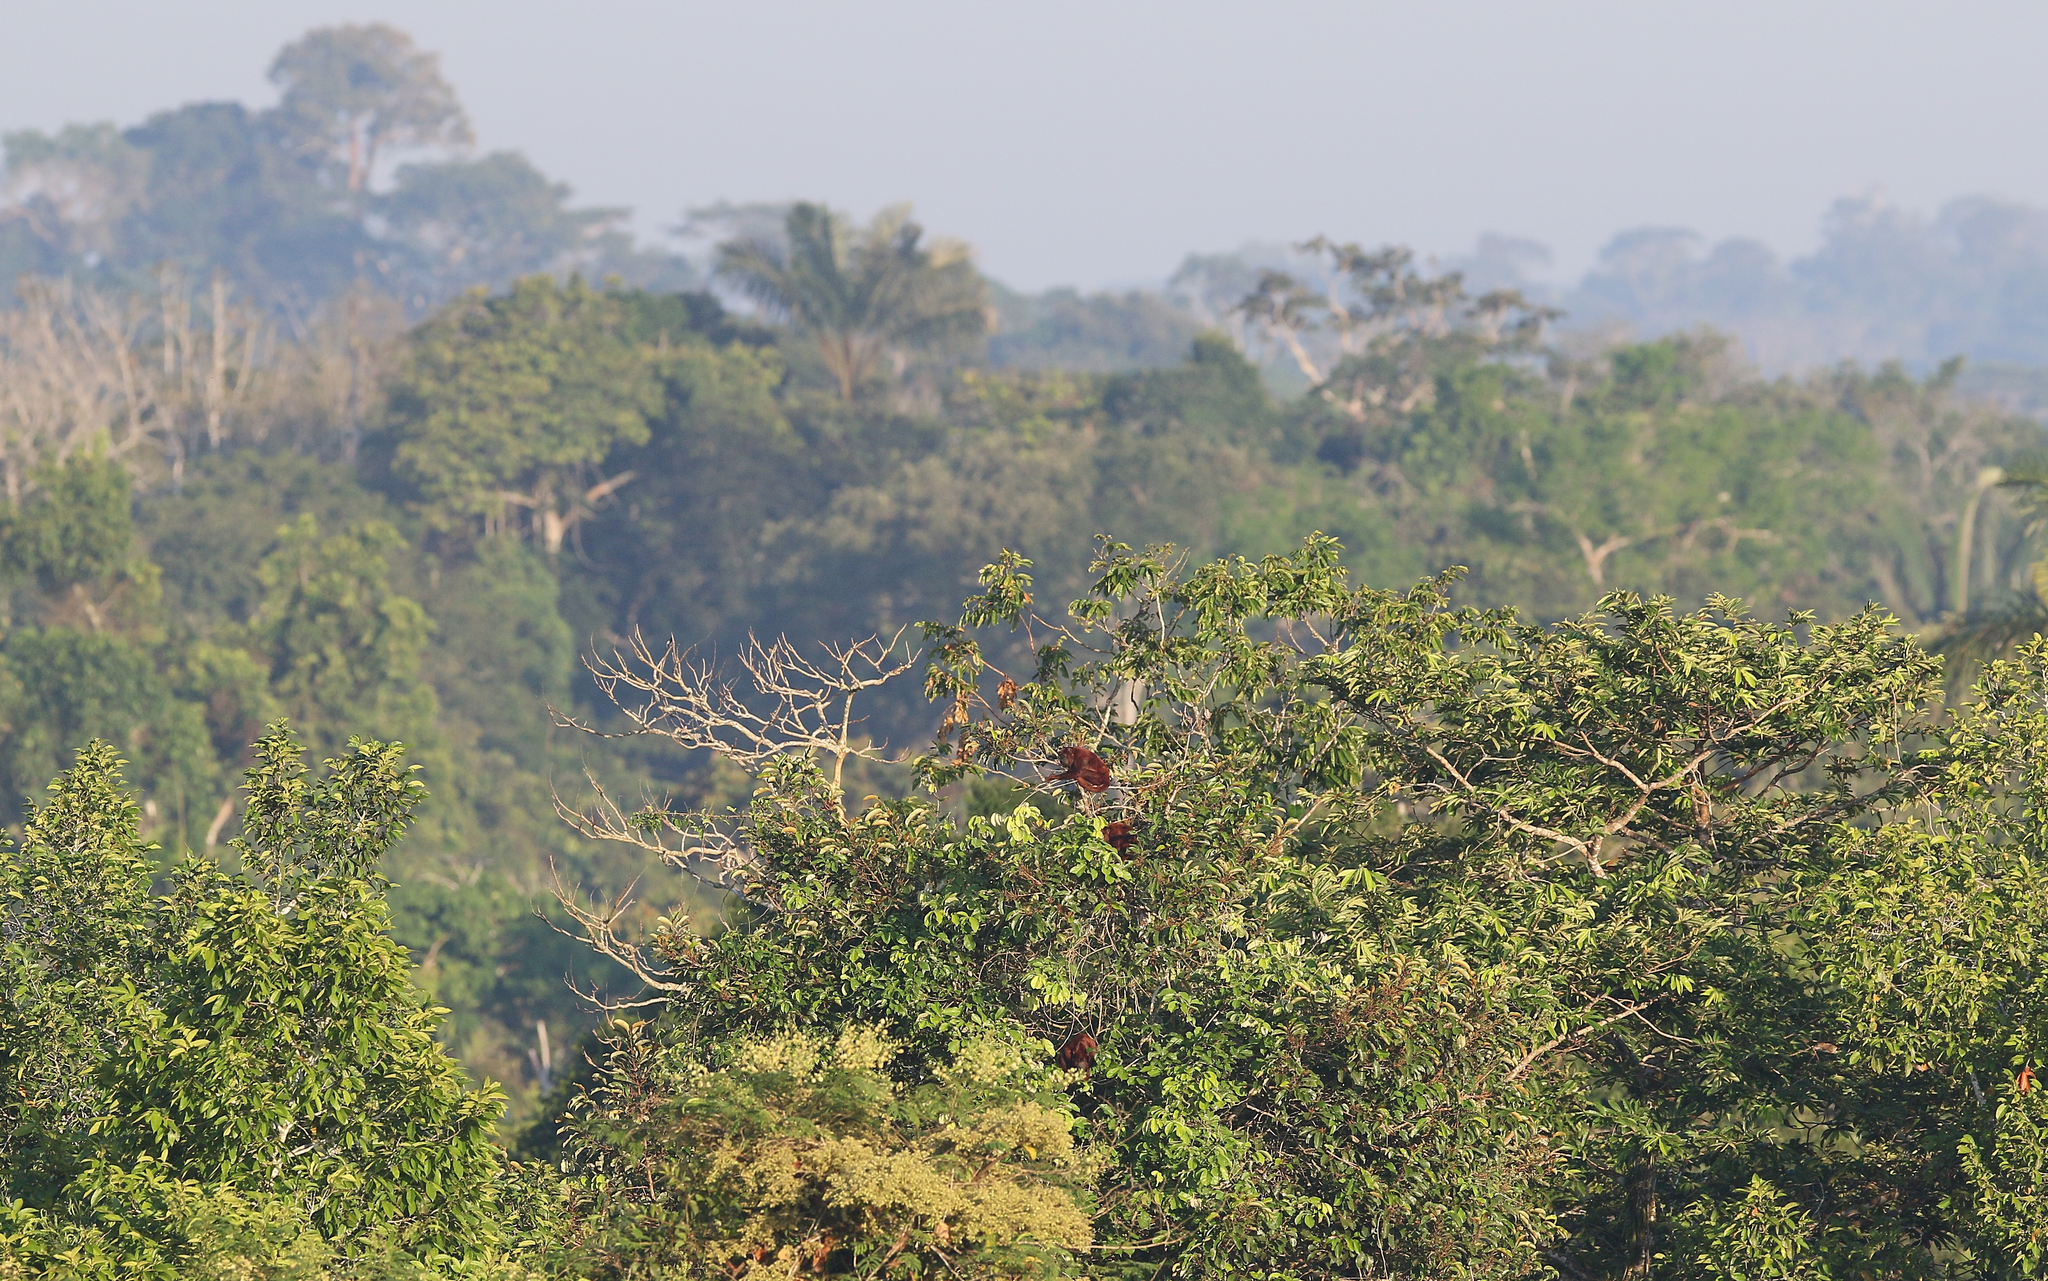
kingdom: Animalia
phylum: Chordata
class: Mammalia
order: Primates
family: Atelidae
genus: Alouatta
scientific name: Alouatta seniculus
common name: Venezuelan red howler
